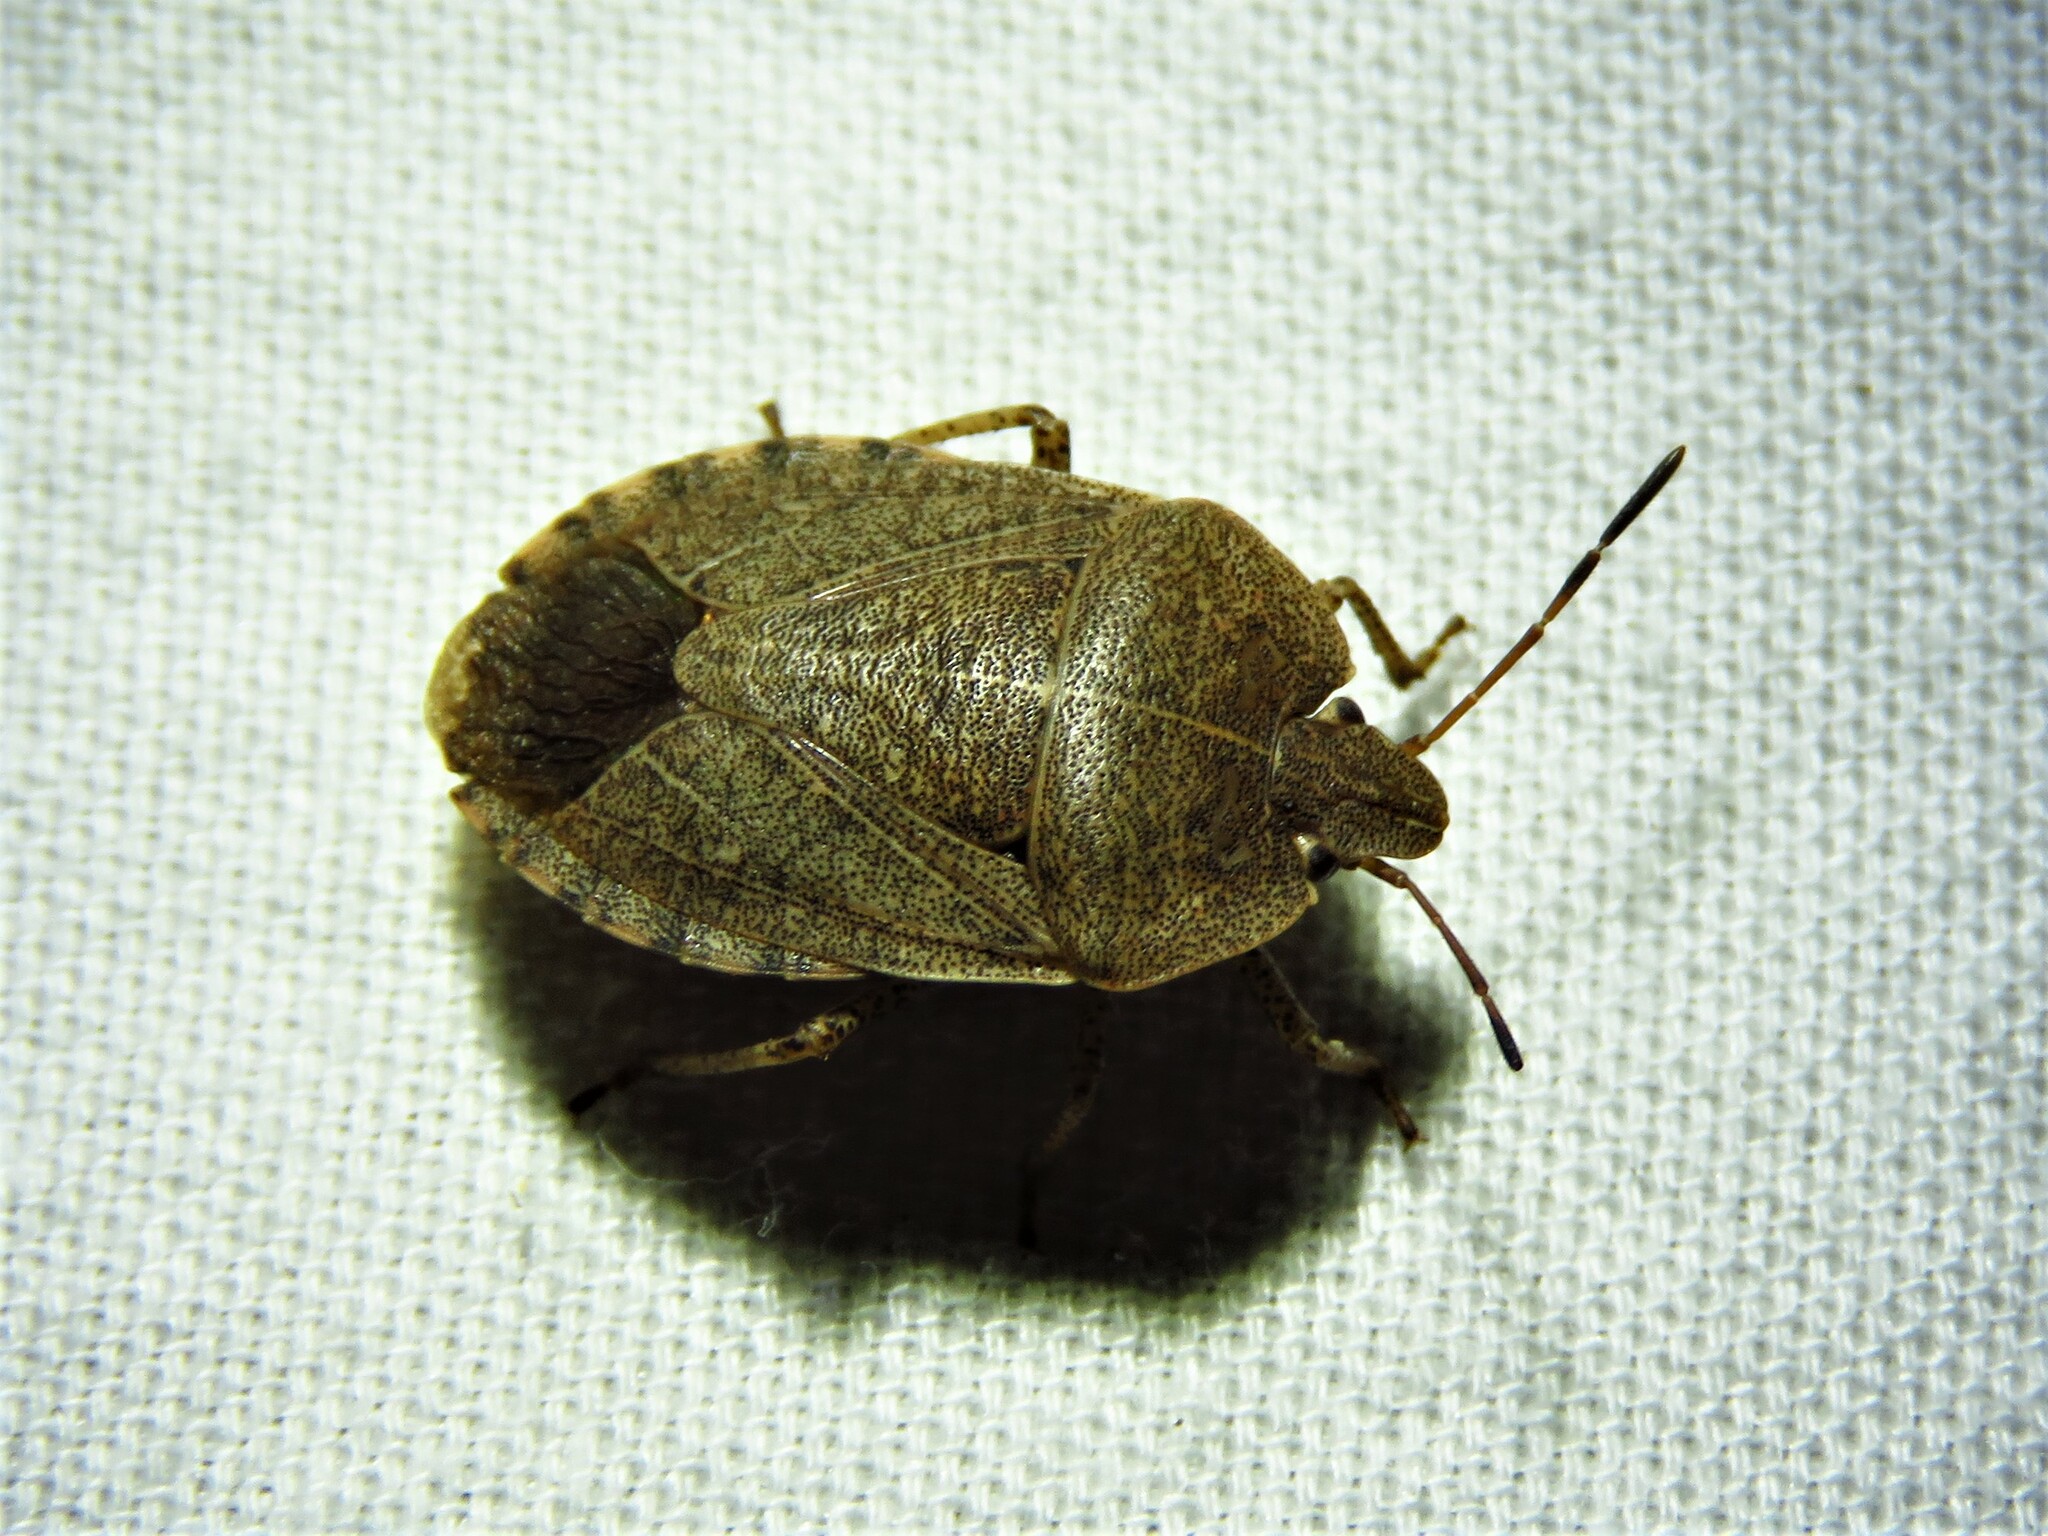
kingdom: Animalia
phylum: Arthropoda
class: Insecta
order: Hemiptera
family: Pentatomidae
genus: Menecles
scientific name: Menecles insertus
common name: Elf shoe stink bug
